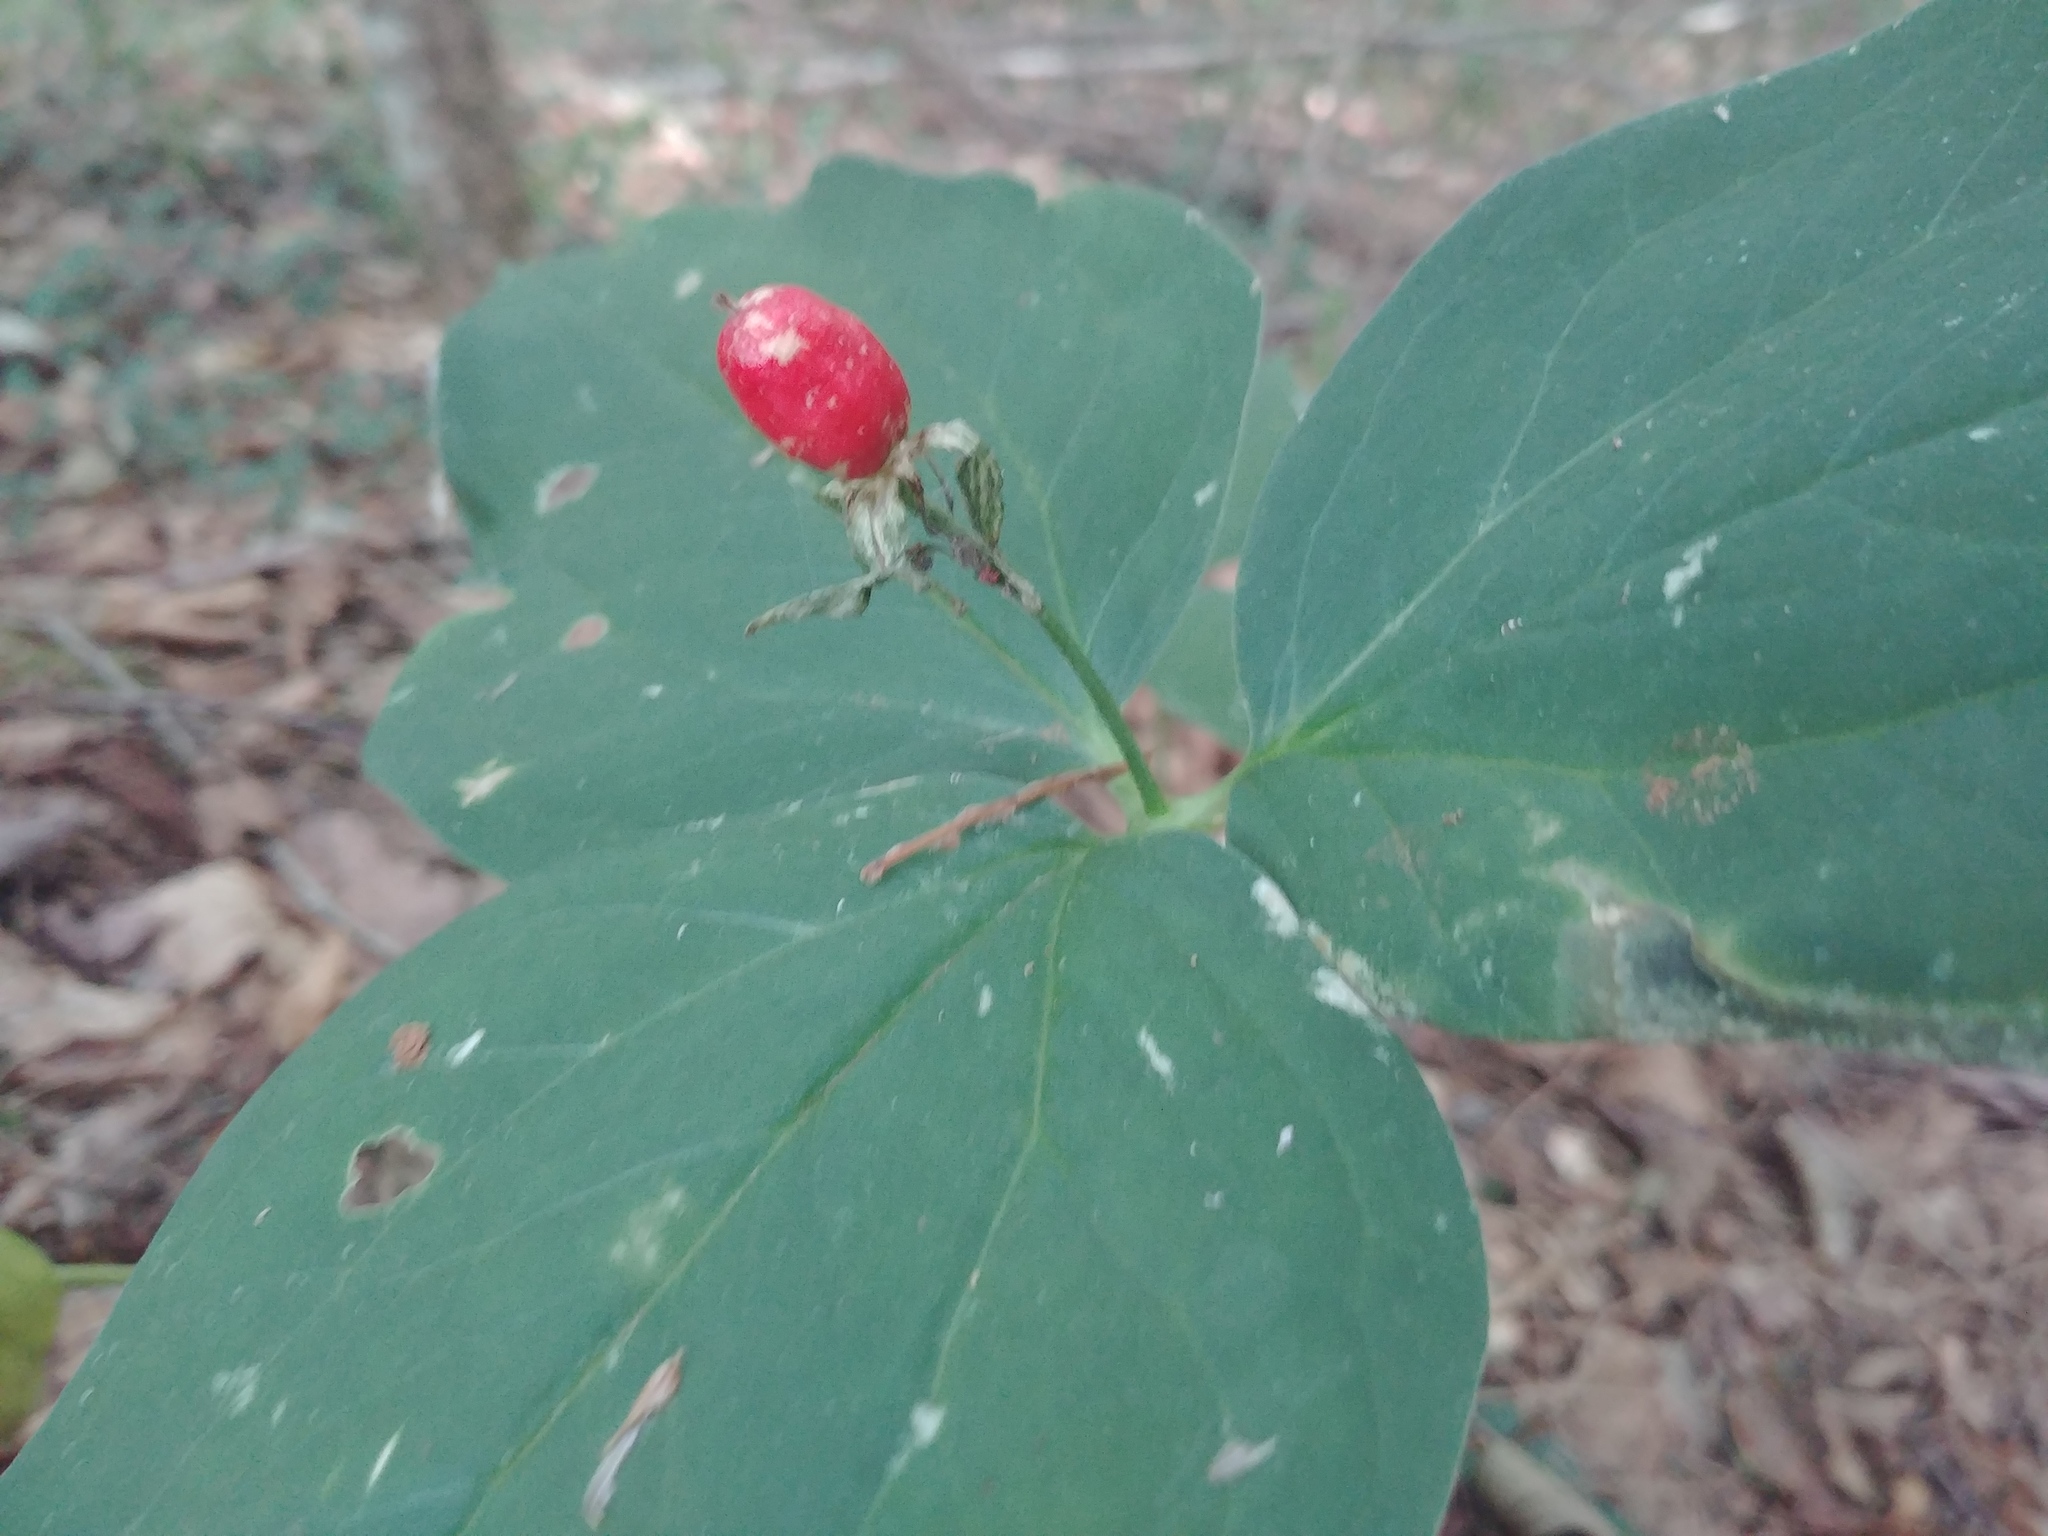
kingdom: Plantae
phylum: Tracheophyta
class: Liliopsida
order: Liliales
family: Melanthiaceae
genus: Trillium
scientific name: Trillium undulatum
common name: Paint trillium
